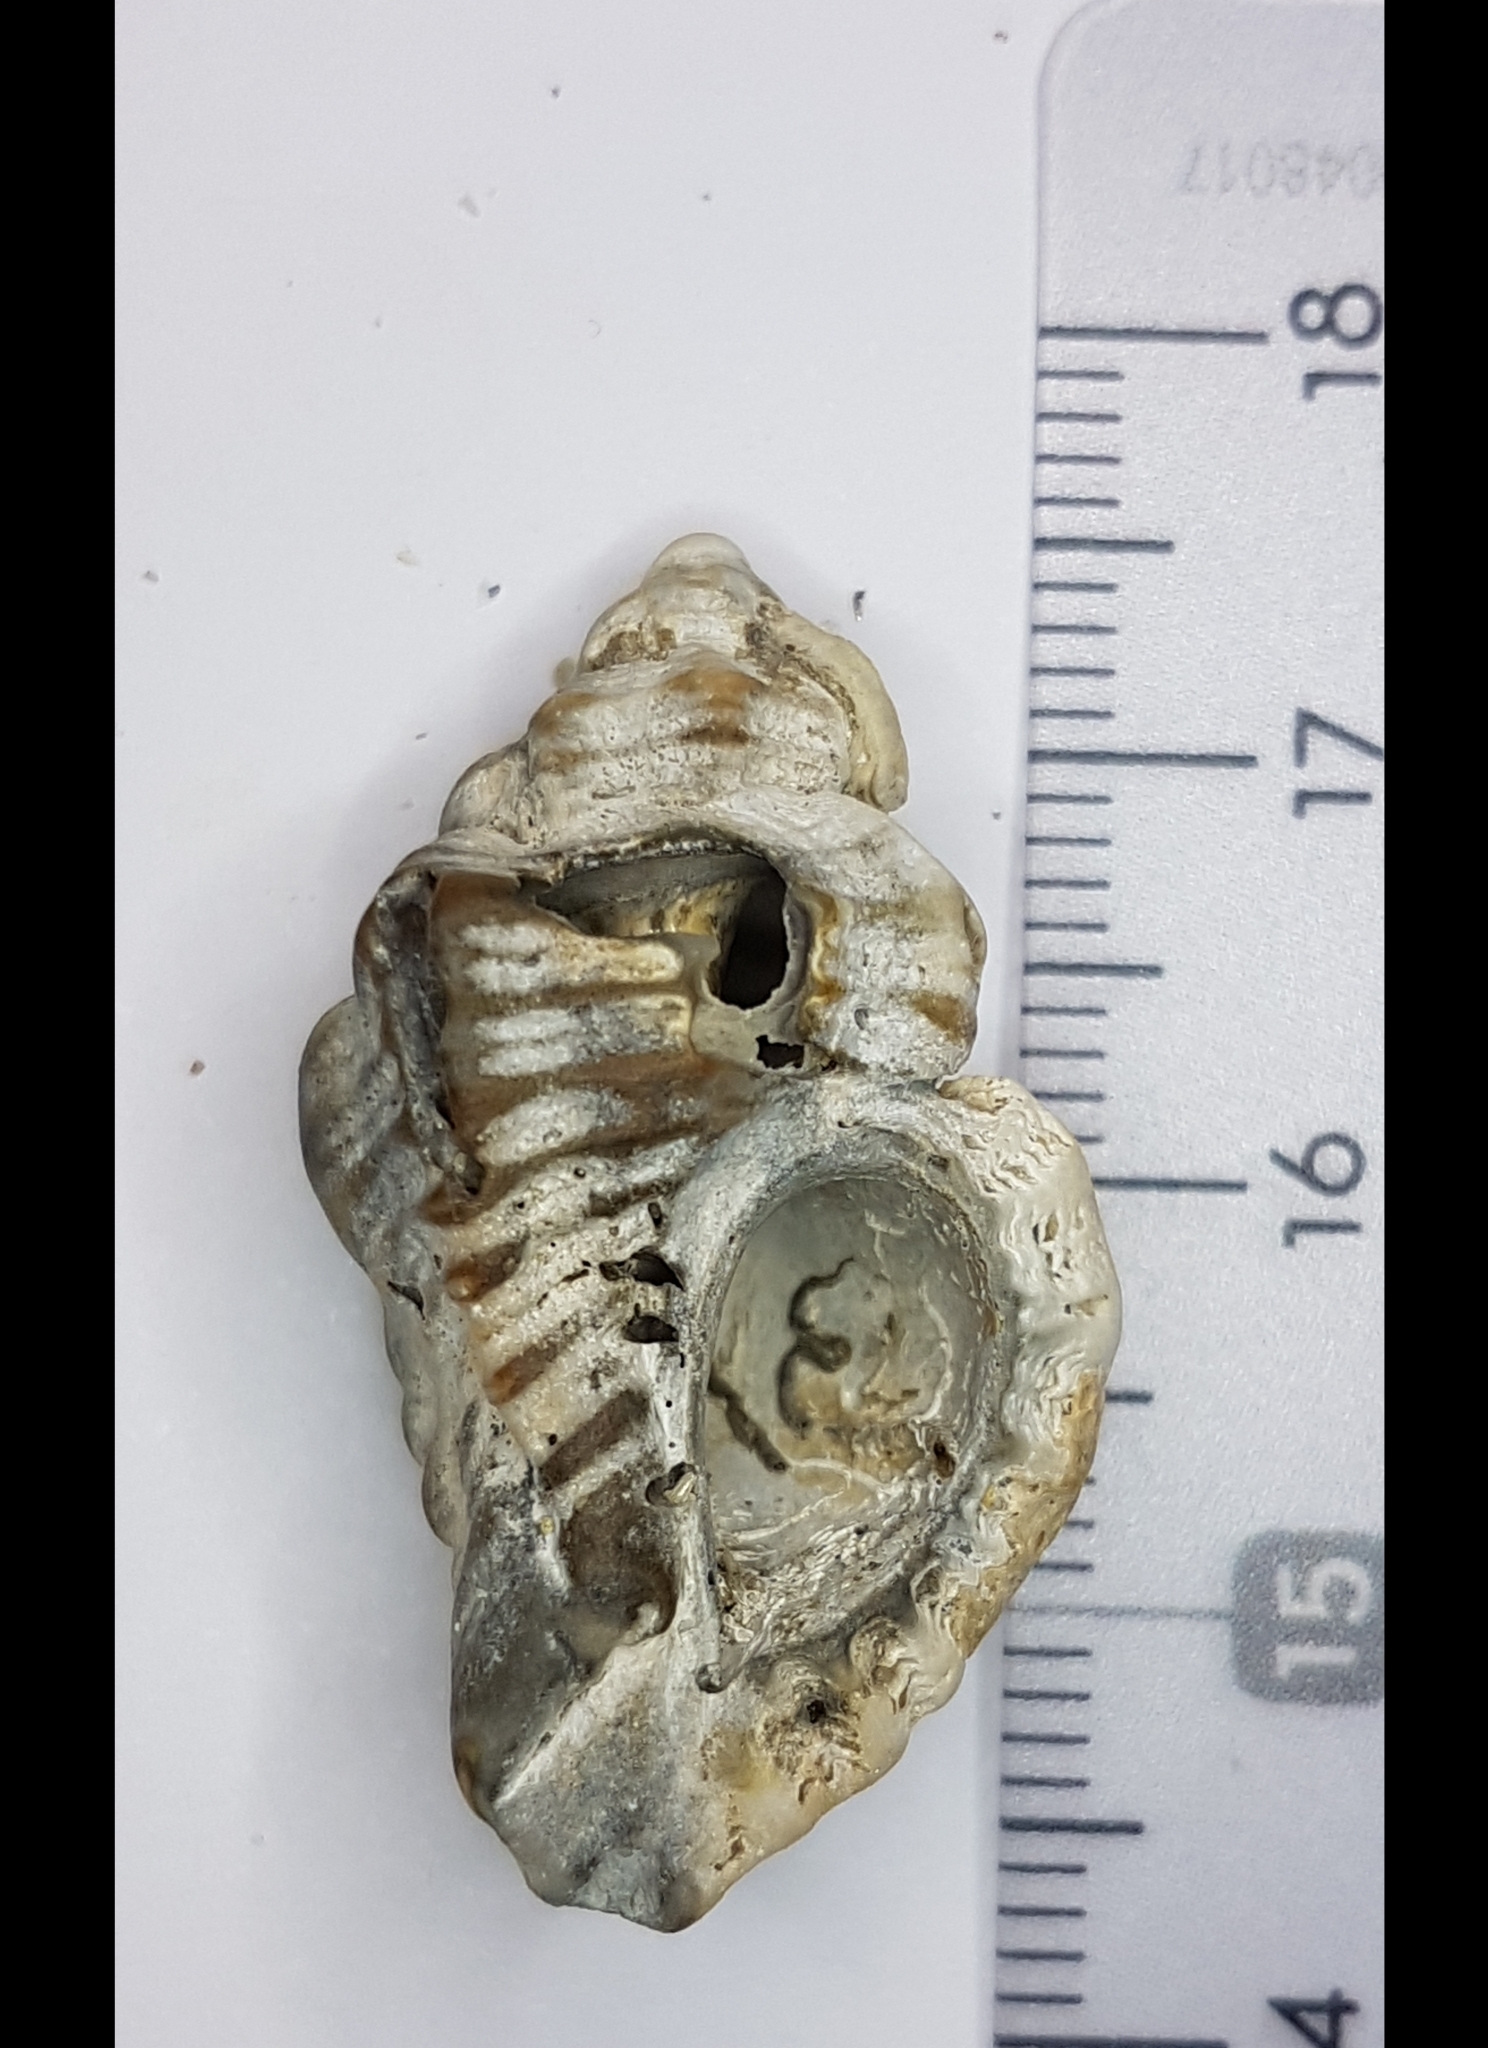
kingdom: Animalia
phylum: Mollusca
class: Gastropoda
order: Neogastropoda
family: Muricidae
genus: Ocenebra
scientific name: Ocenebra erinaceus
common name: European sting winkle
